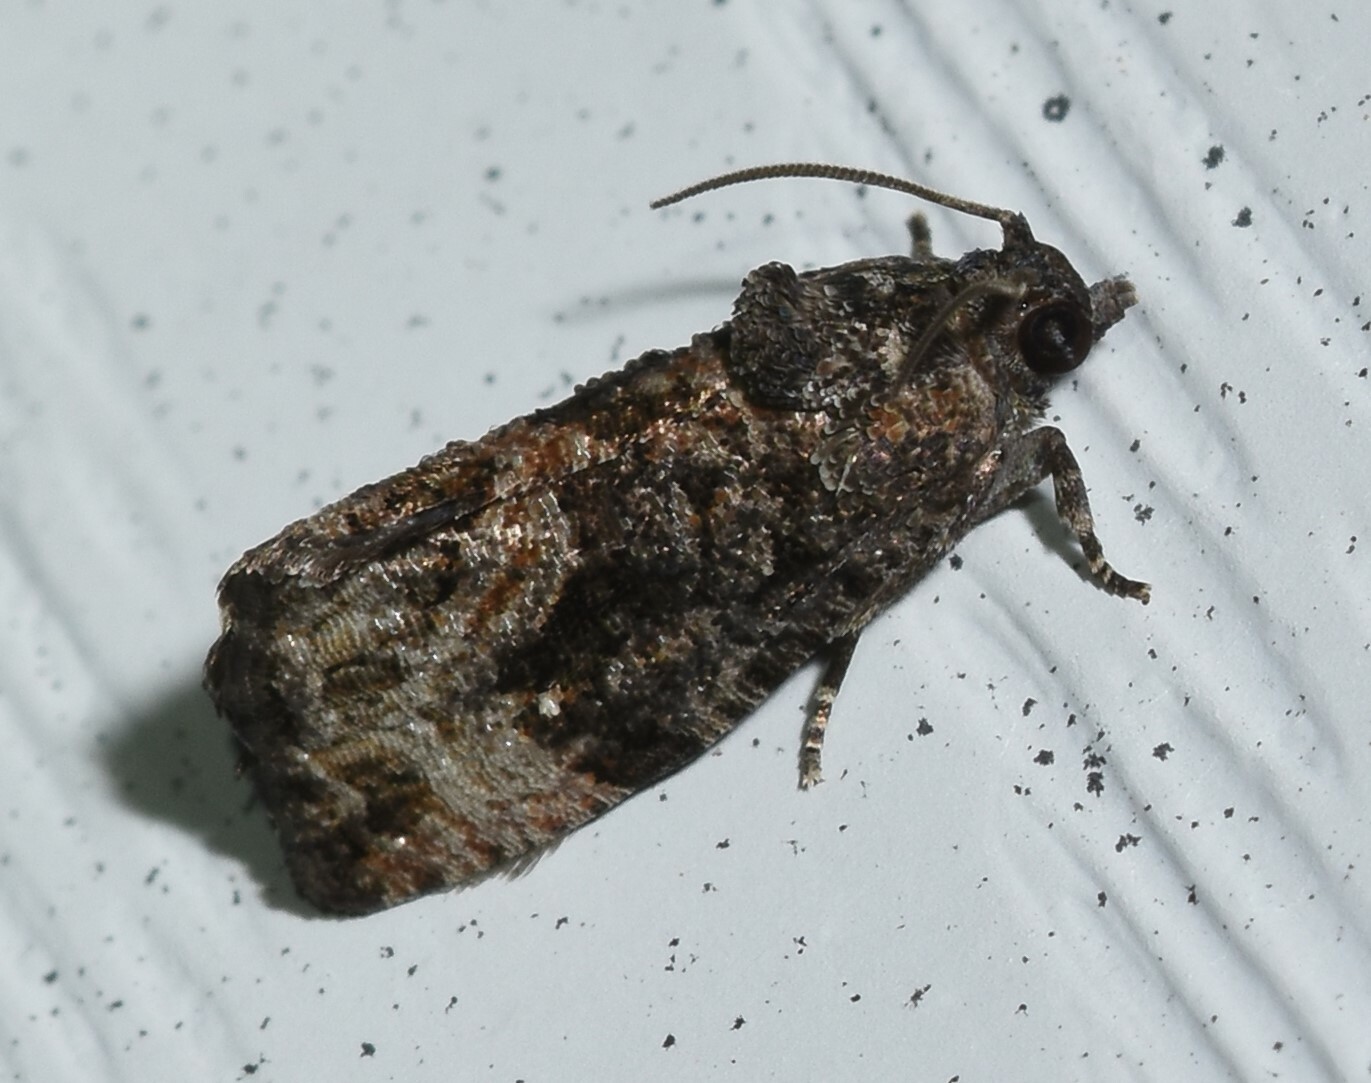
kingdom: Animalia
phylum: Arthropoda
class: Insecta
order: Lepidoptera
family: Tortricidae
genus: Gymnandrosoma
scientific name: Gymnandrosoma punctidiscanum
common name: Dotted ecdytolopha moth
